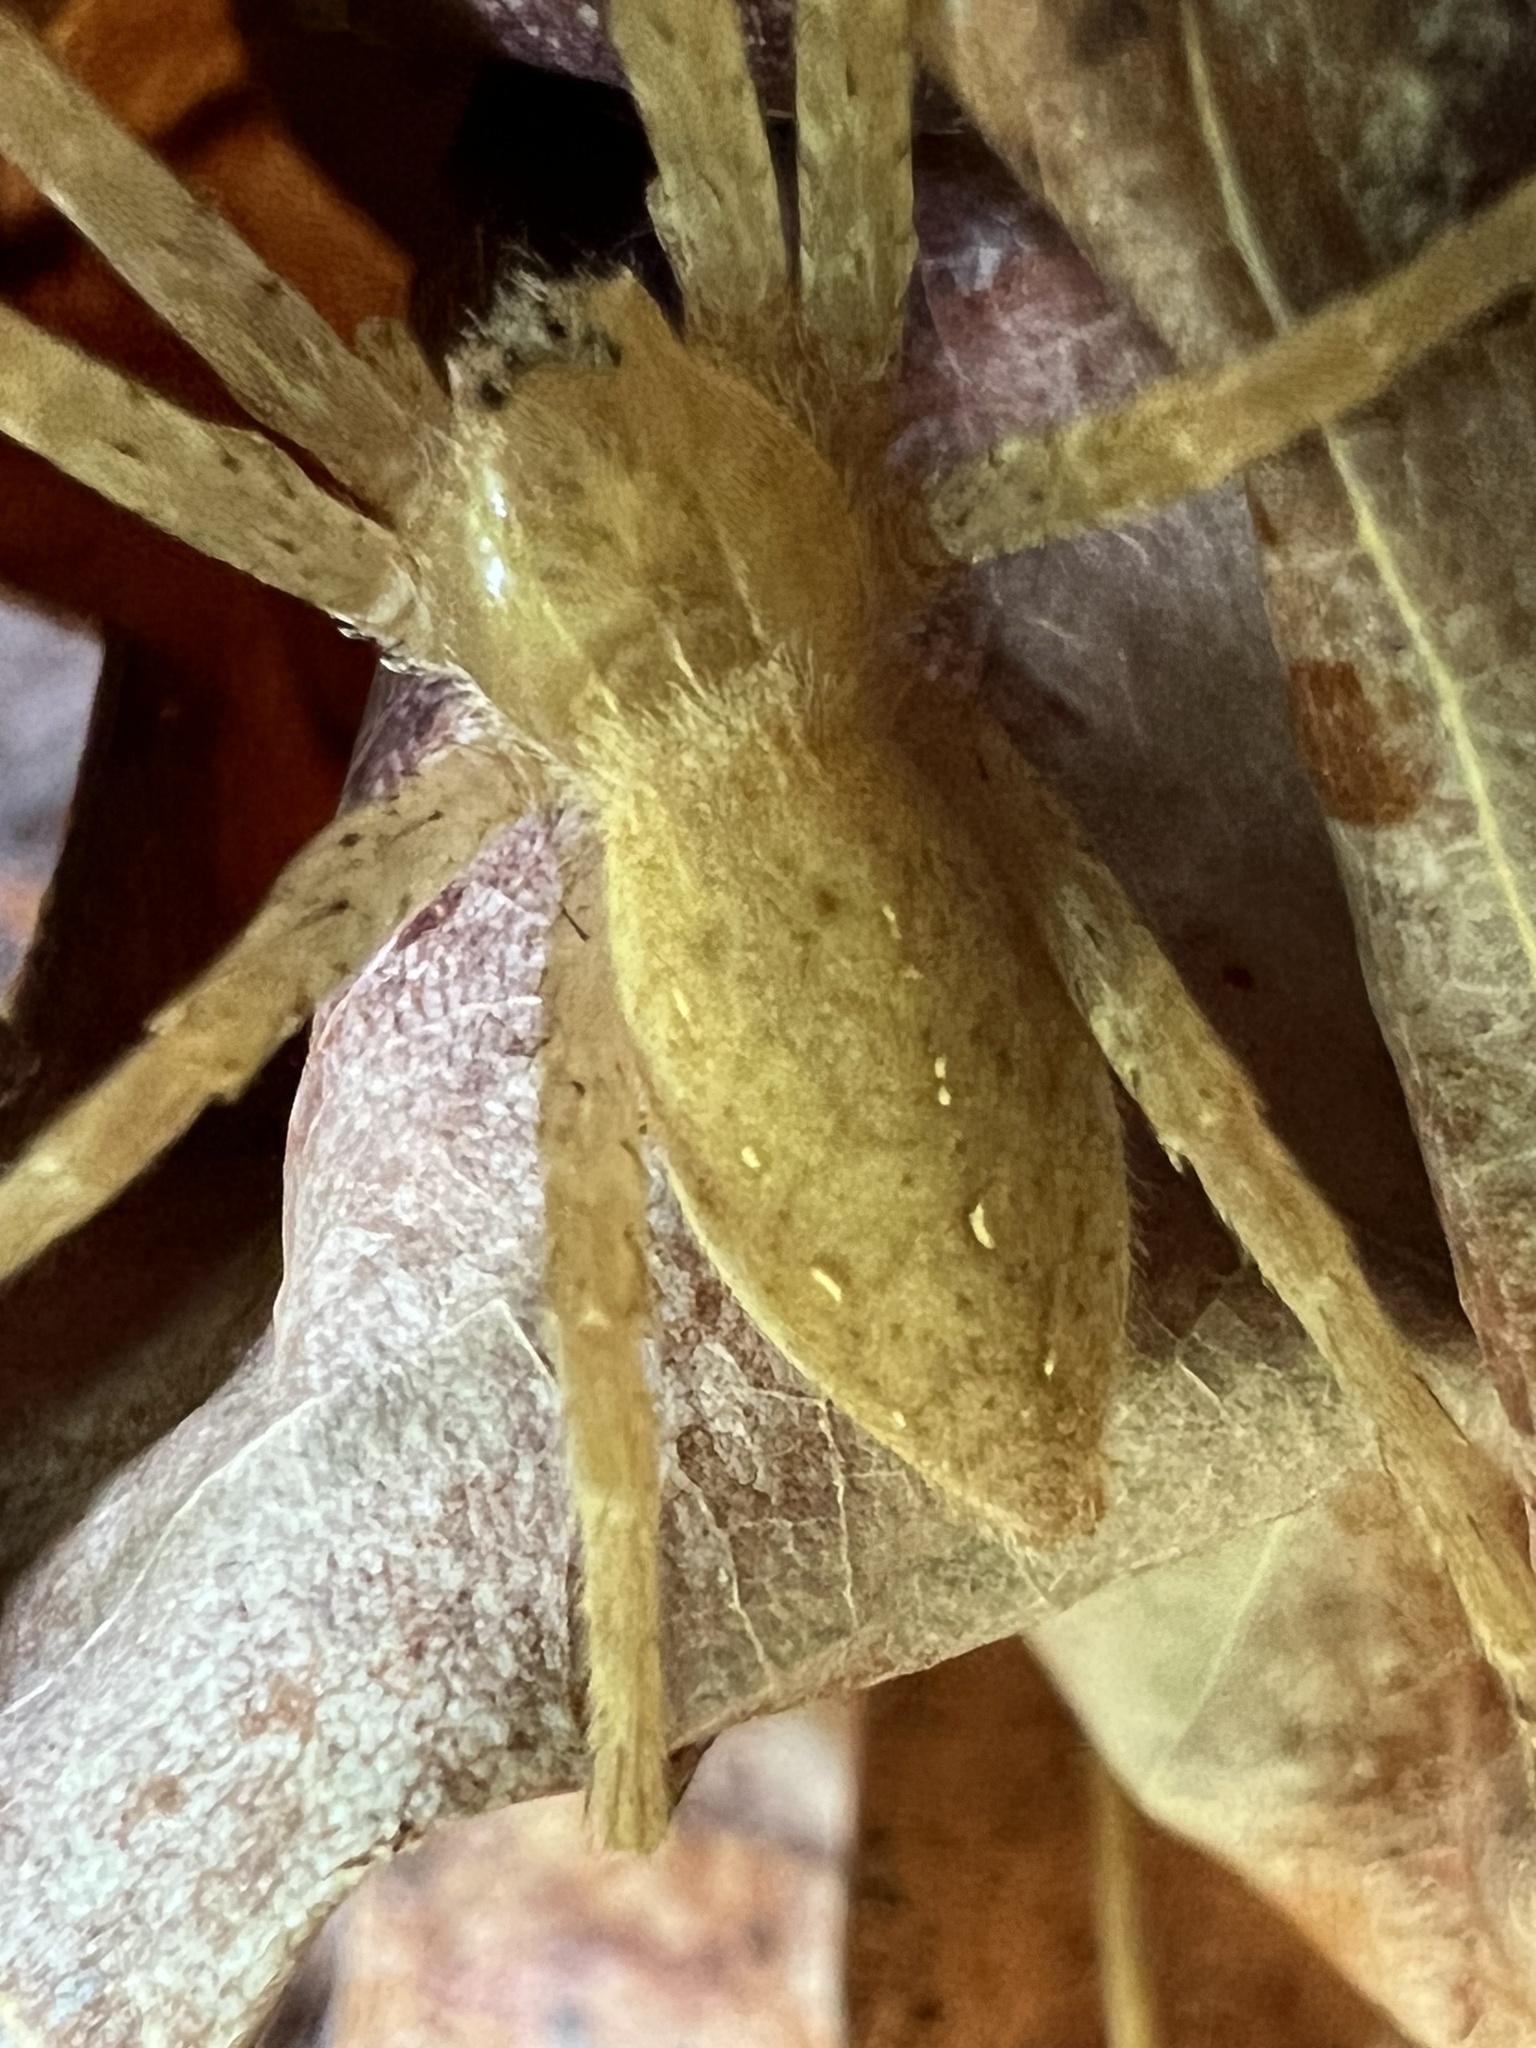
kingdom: Animalia
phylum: Arthropoda
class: Arachnida
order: Araneae
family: Pisauridae
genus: Pisaurina
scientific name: Pisaurina mira
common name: American nursery web spider
